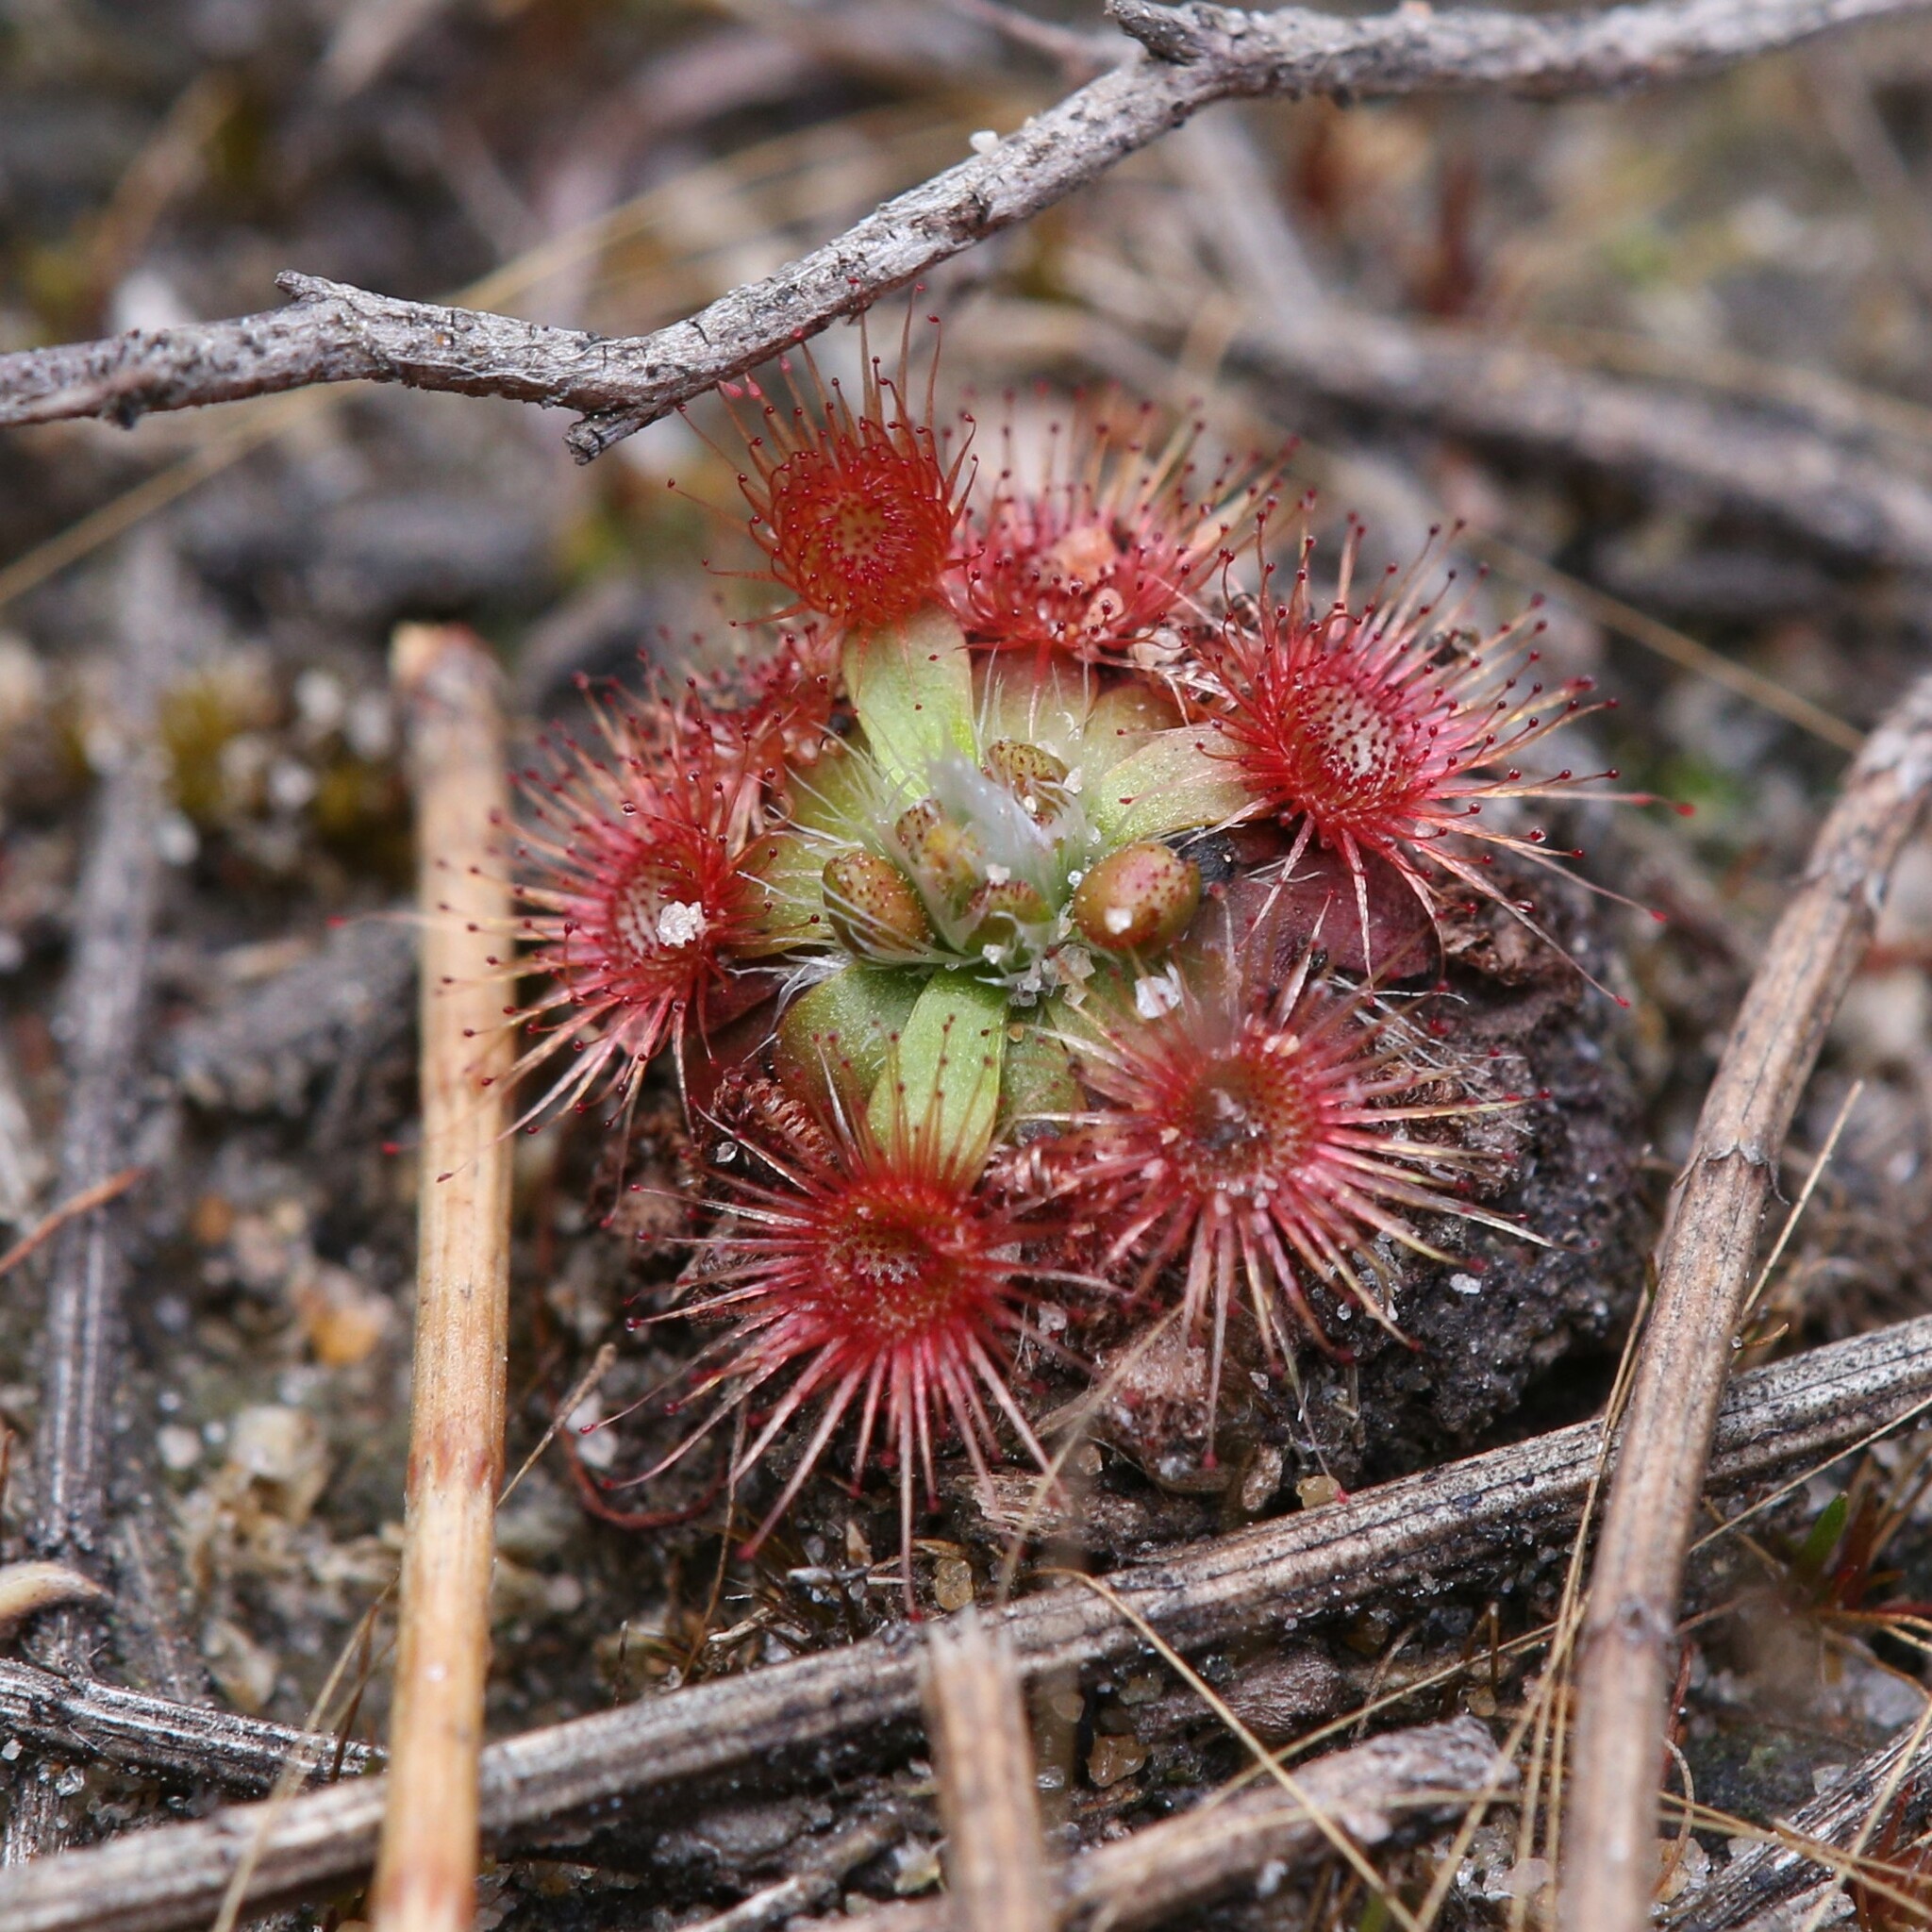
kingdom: Plantae
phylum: Tracheophyta
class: Magnoliopsida
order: Caryophyllales
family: Droseraceae
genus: Drosera
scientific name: Drosera pulchella
